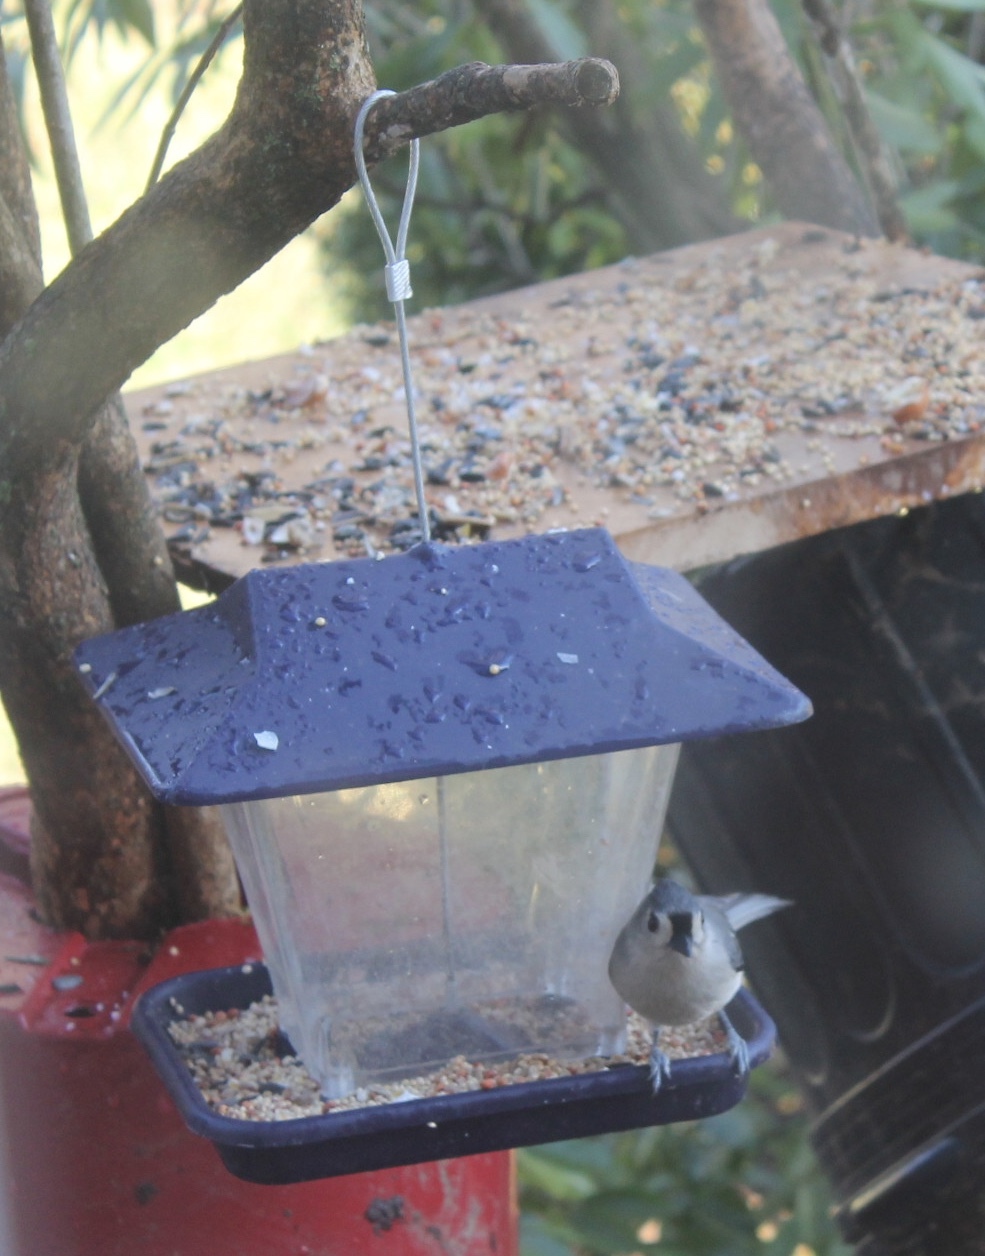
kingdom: Animalia
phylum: Chordata
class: Aves
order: Passeriformes
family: Paridae
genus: Baeolophus
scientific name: Baeolophus bicolor
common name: Tufted titmouse
